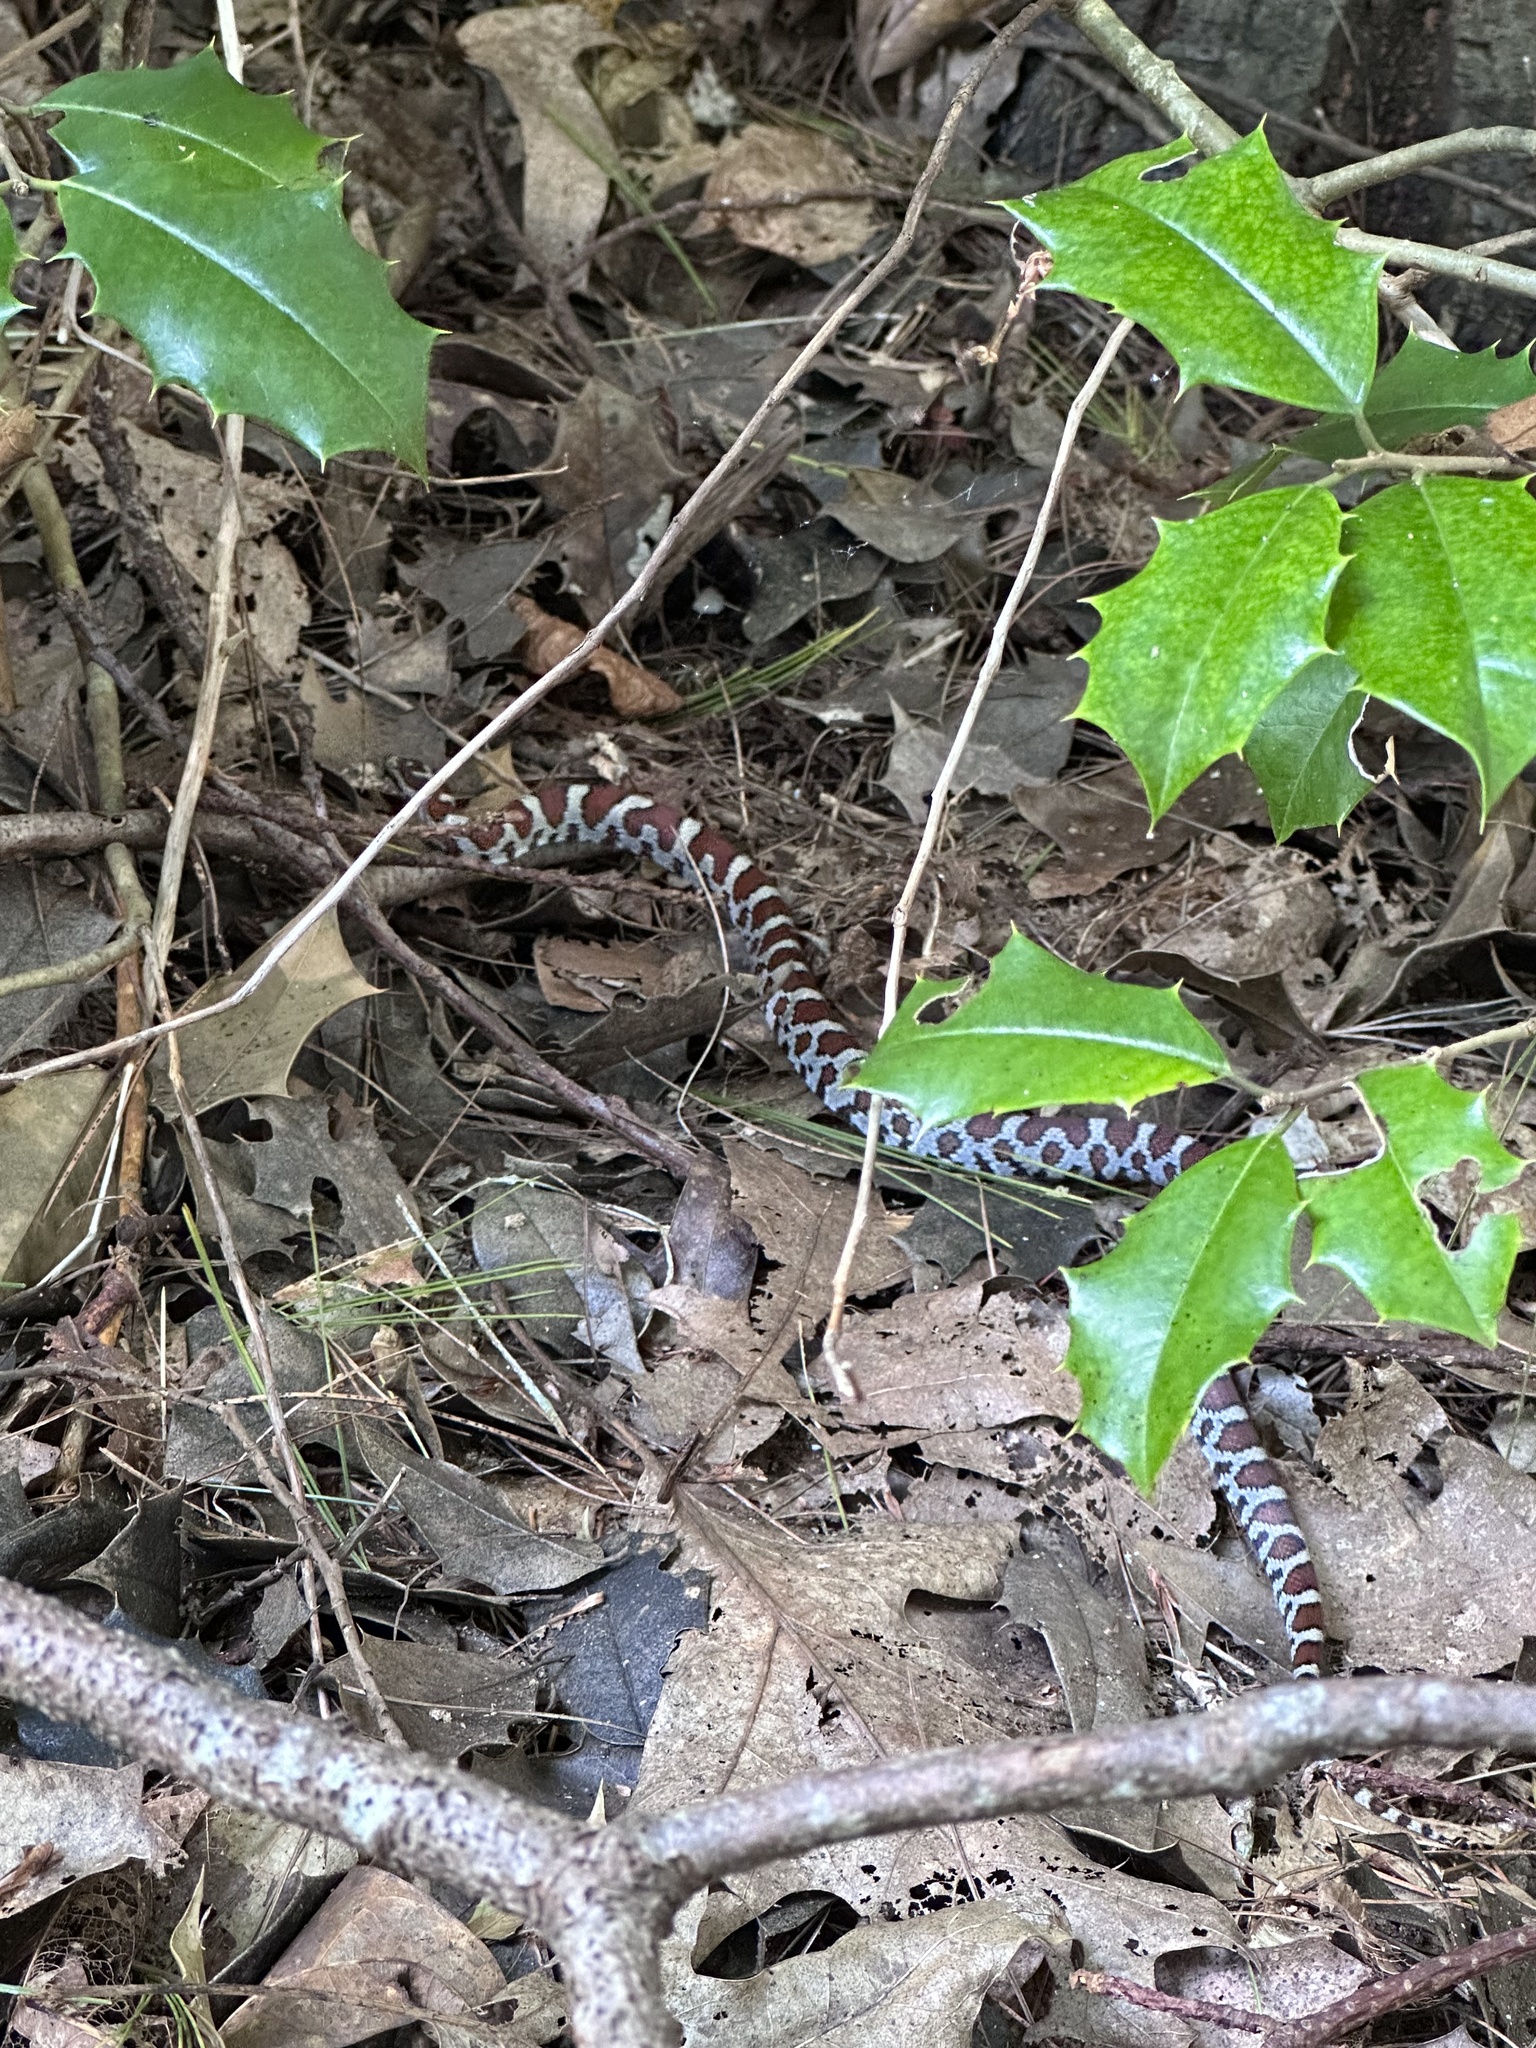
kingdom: Animalia
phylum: Chordata
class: Squamata
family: Colubridae
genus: Lampropeltis
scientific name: Lampropeltis triangulum
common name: Eastern milksnake
